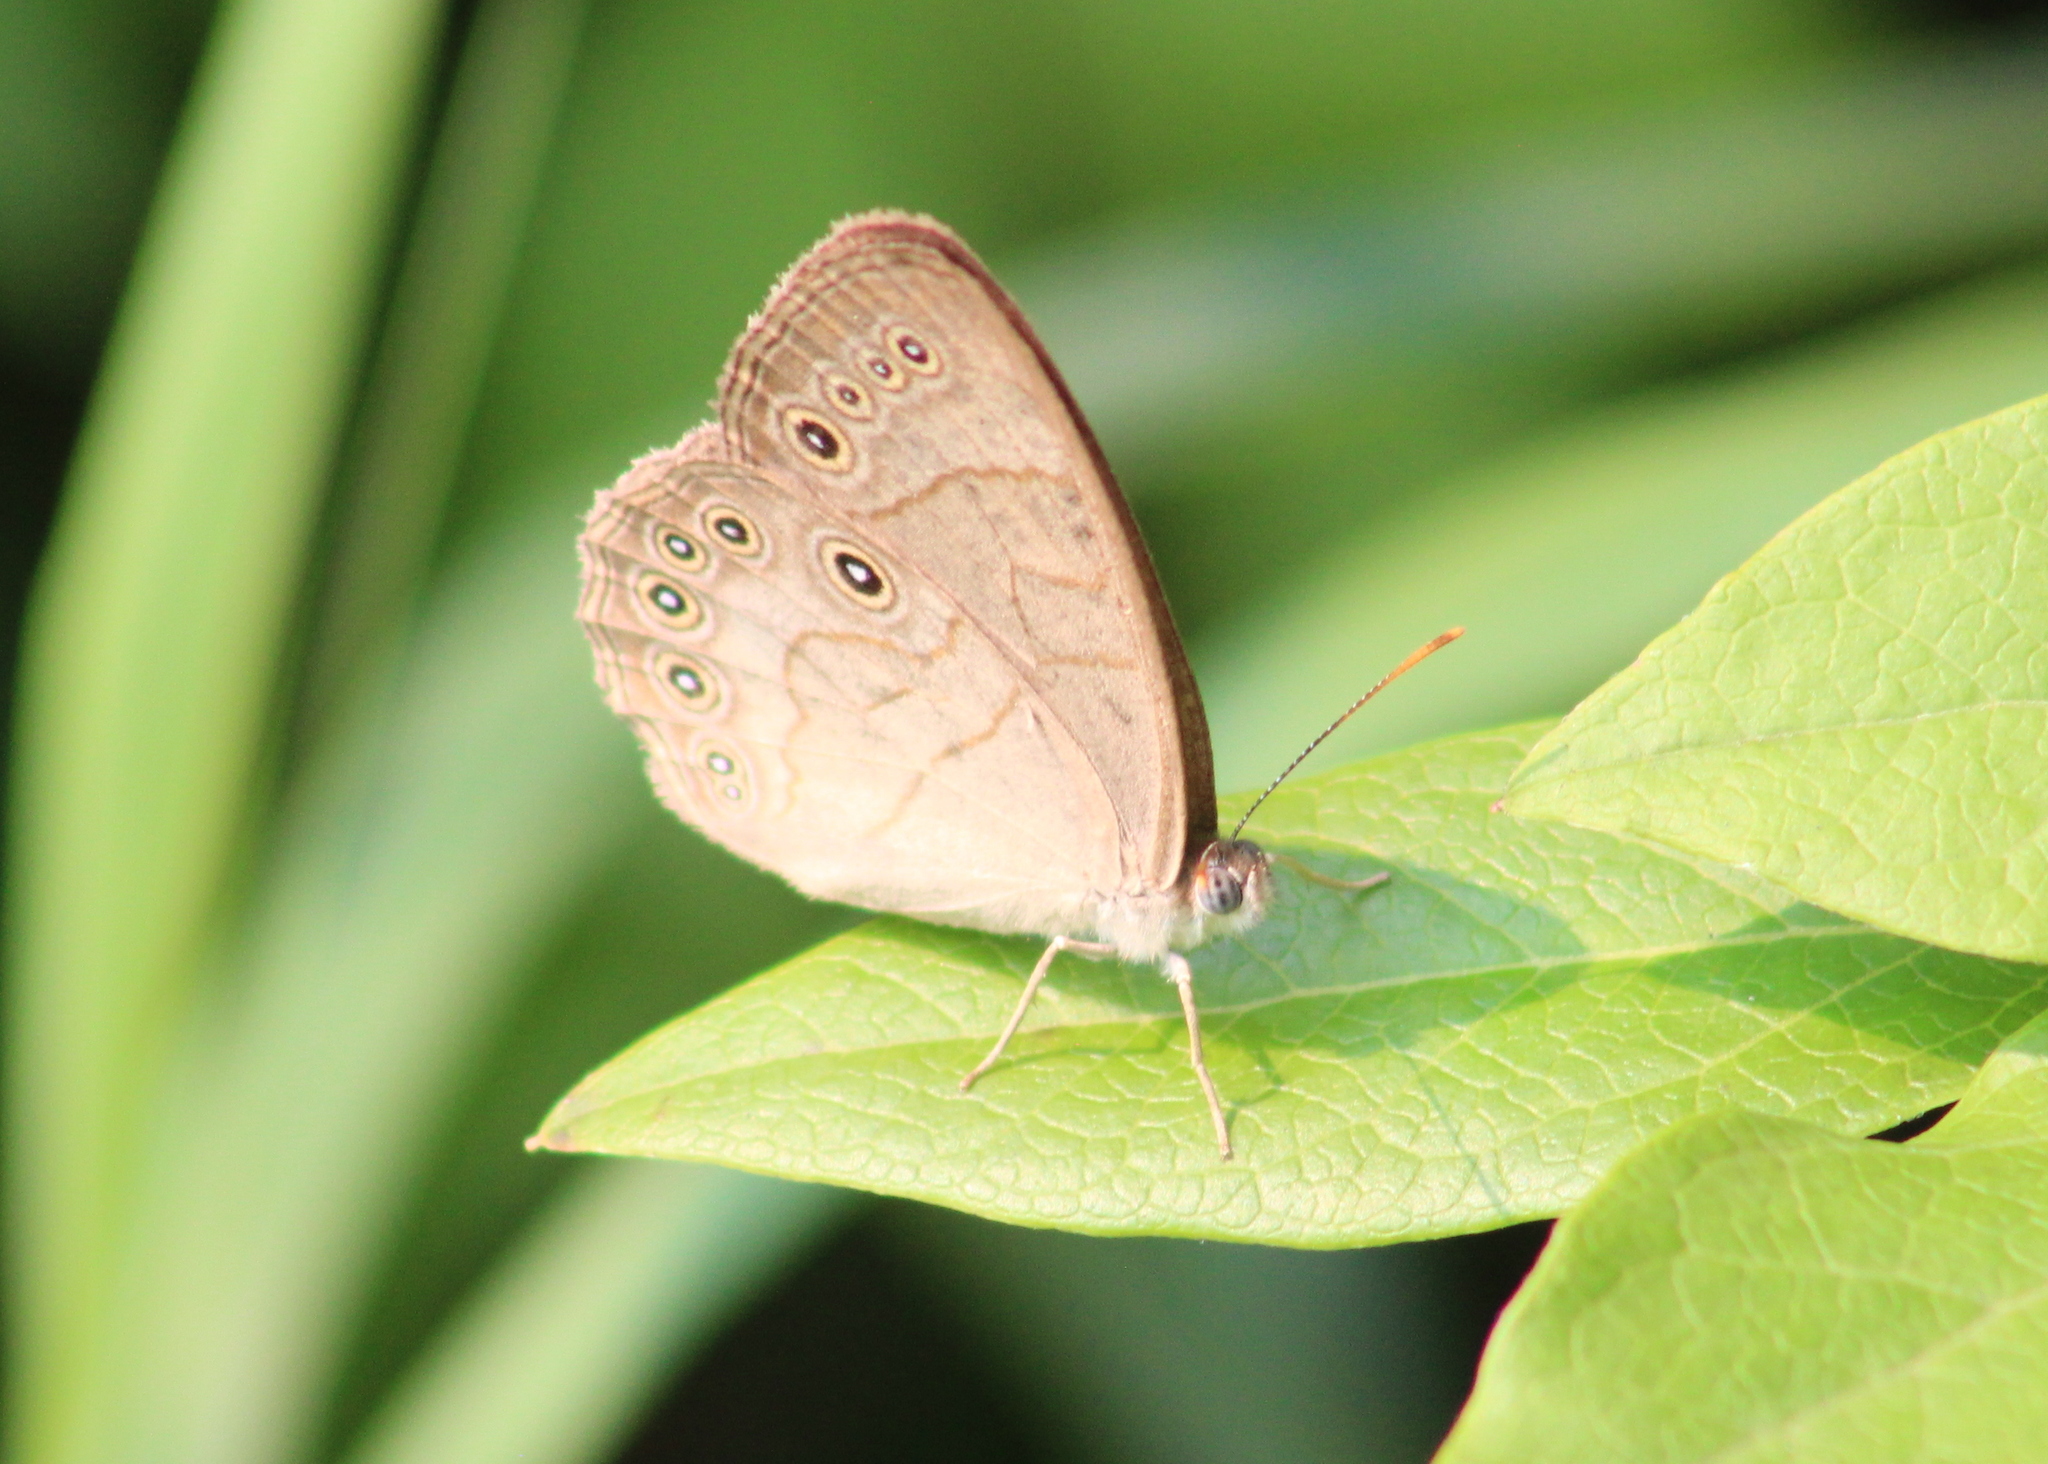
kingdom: Animalia
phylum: Arthropoda
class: Insecta
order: Lepidoptera
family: Nymphalidae
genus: Lethe
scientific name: Lethe eurydice
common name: Eyed brown
